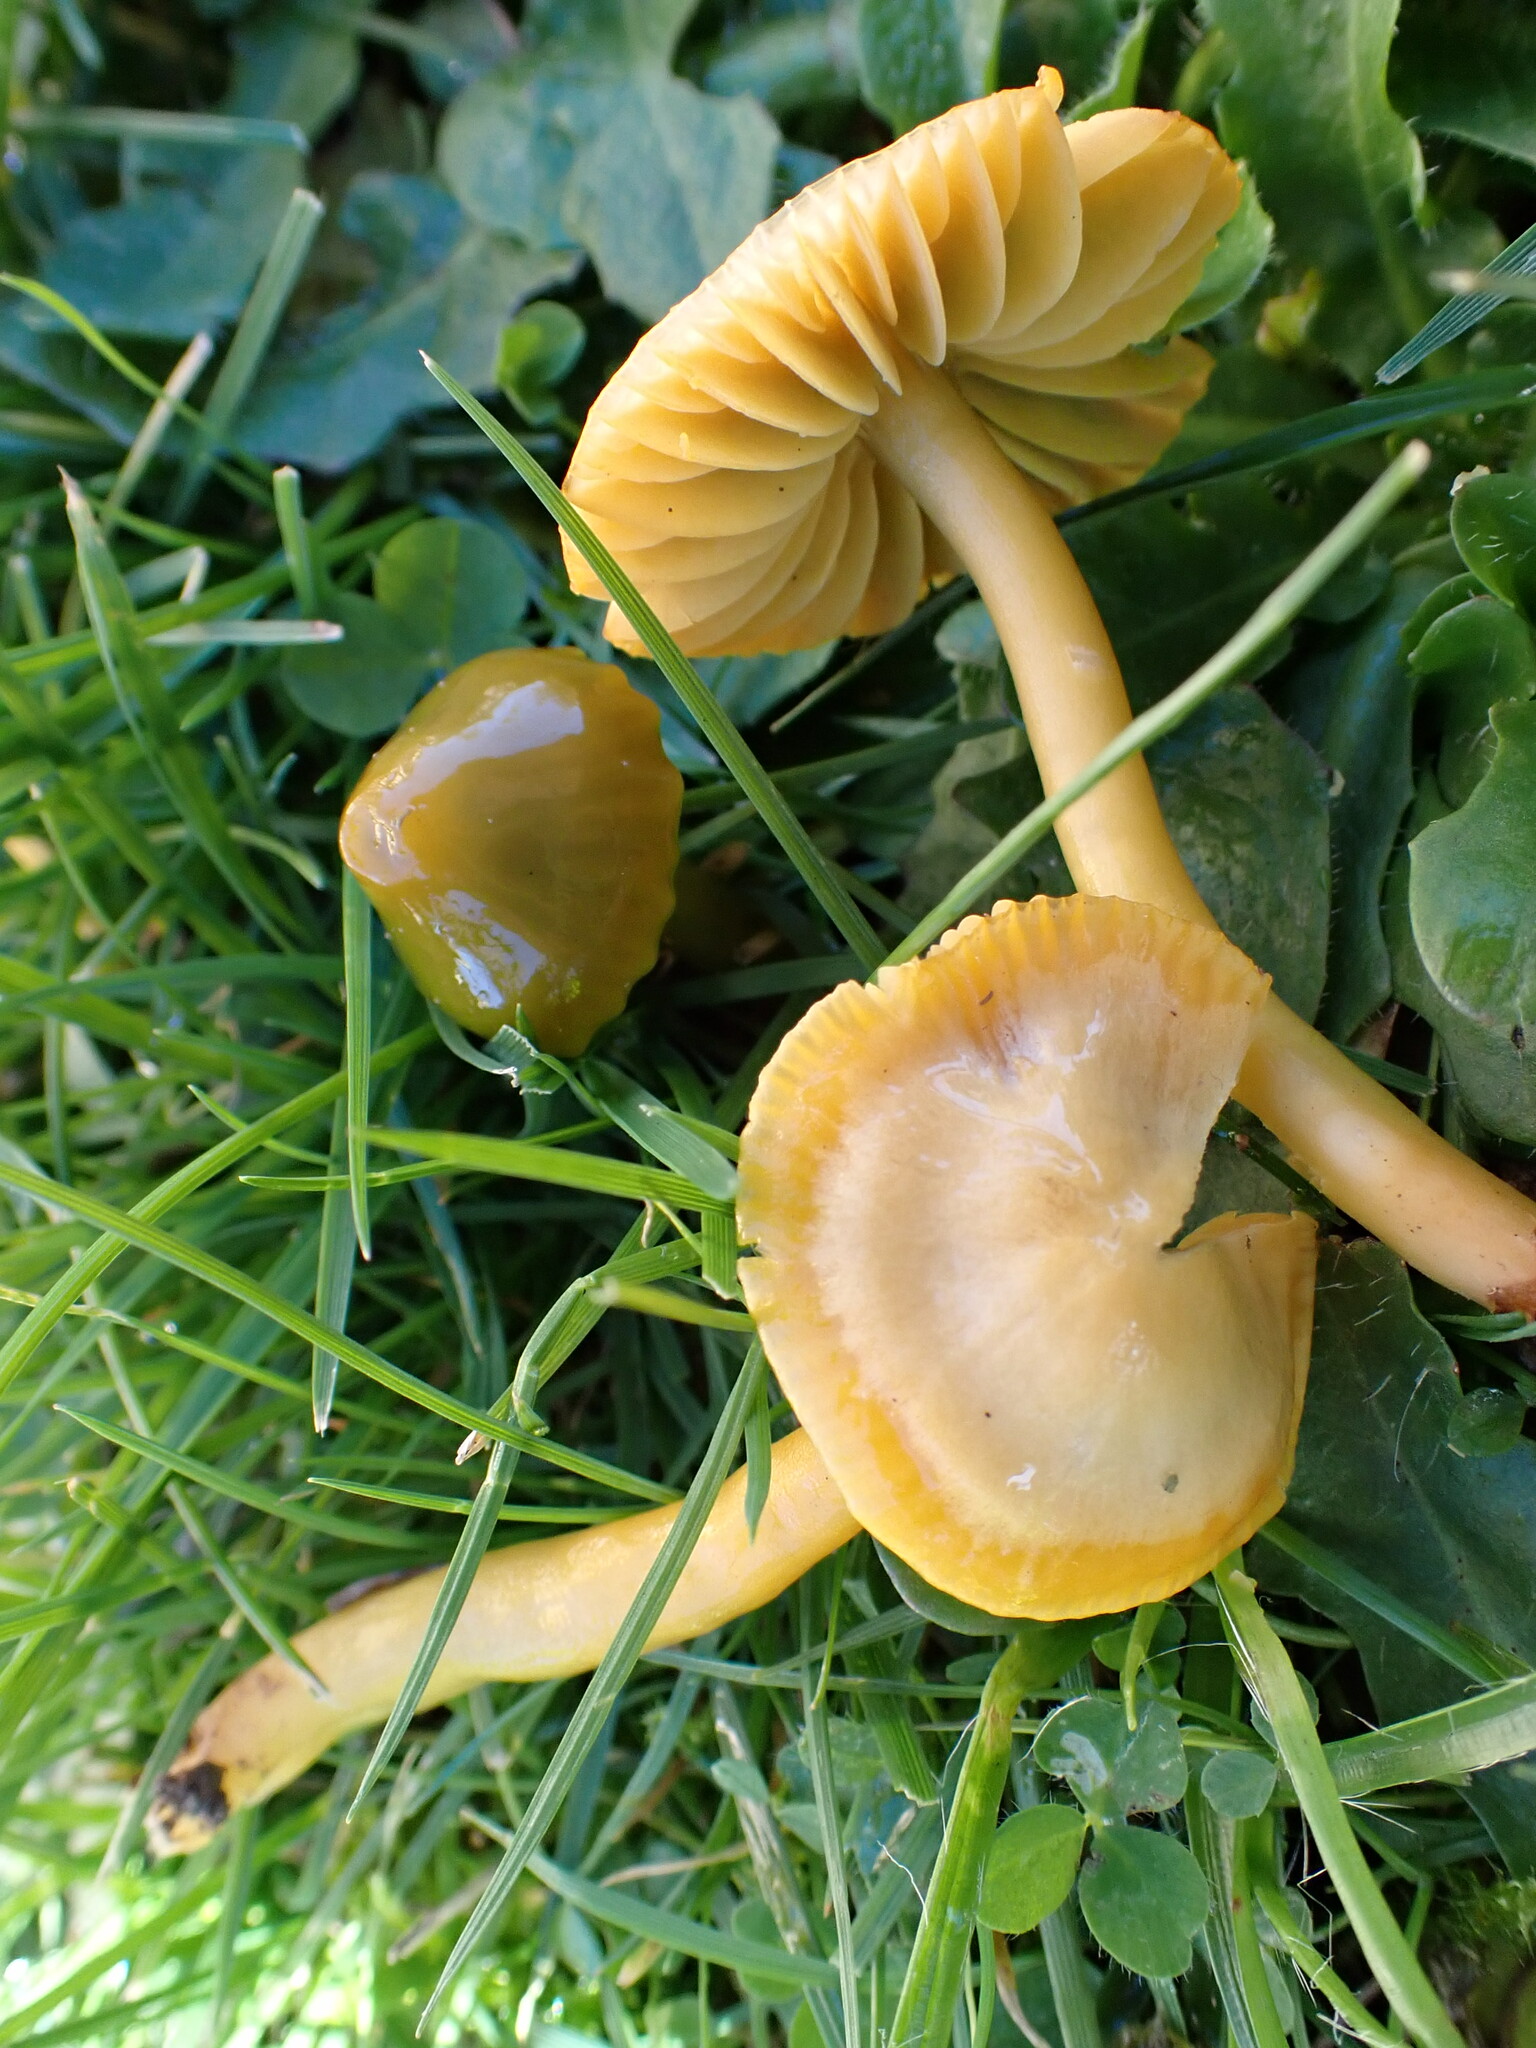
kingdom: Fungi
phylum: Basidiomycota
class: Agaricomycetes
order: Agaricales
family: Hygrophoraceae
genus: Gliophorus
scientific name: Gliophorus psittacinus
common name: Parrot wax-cap
